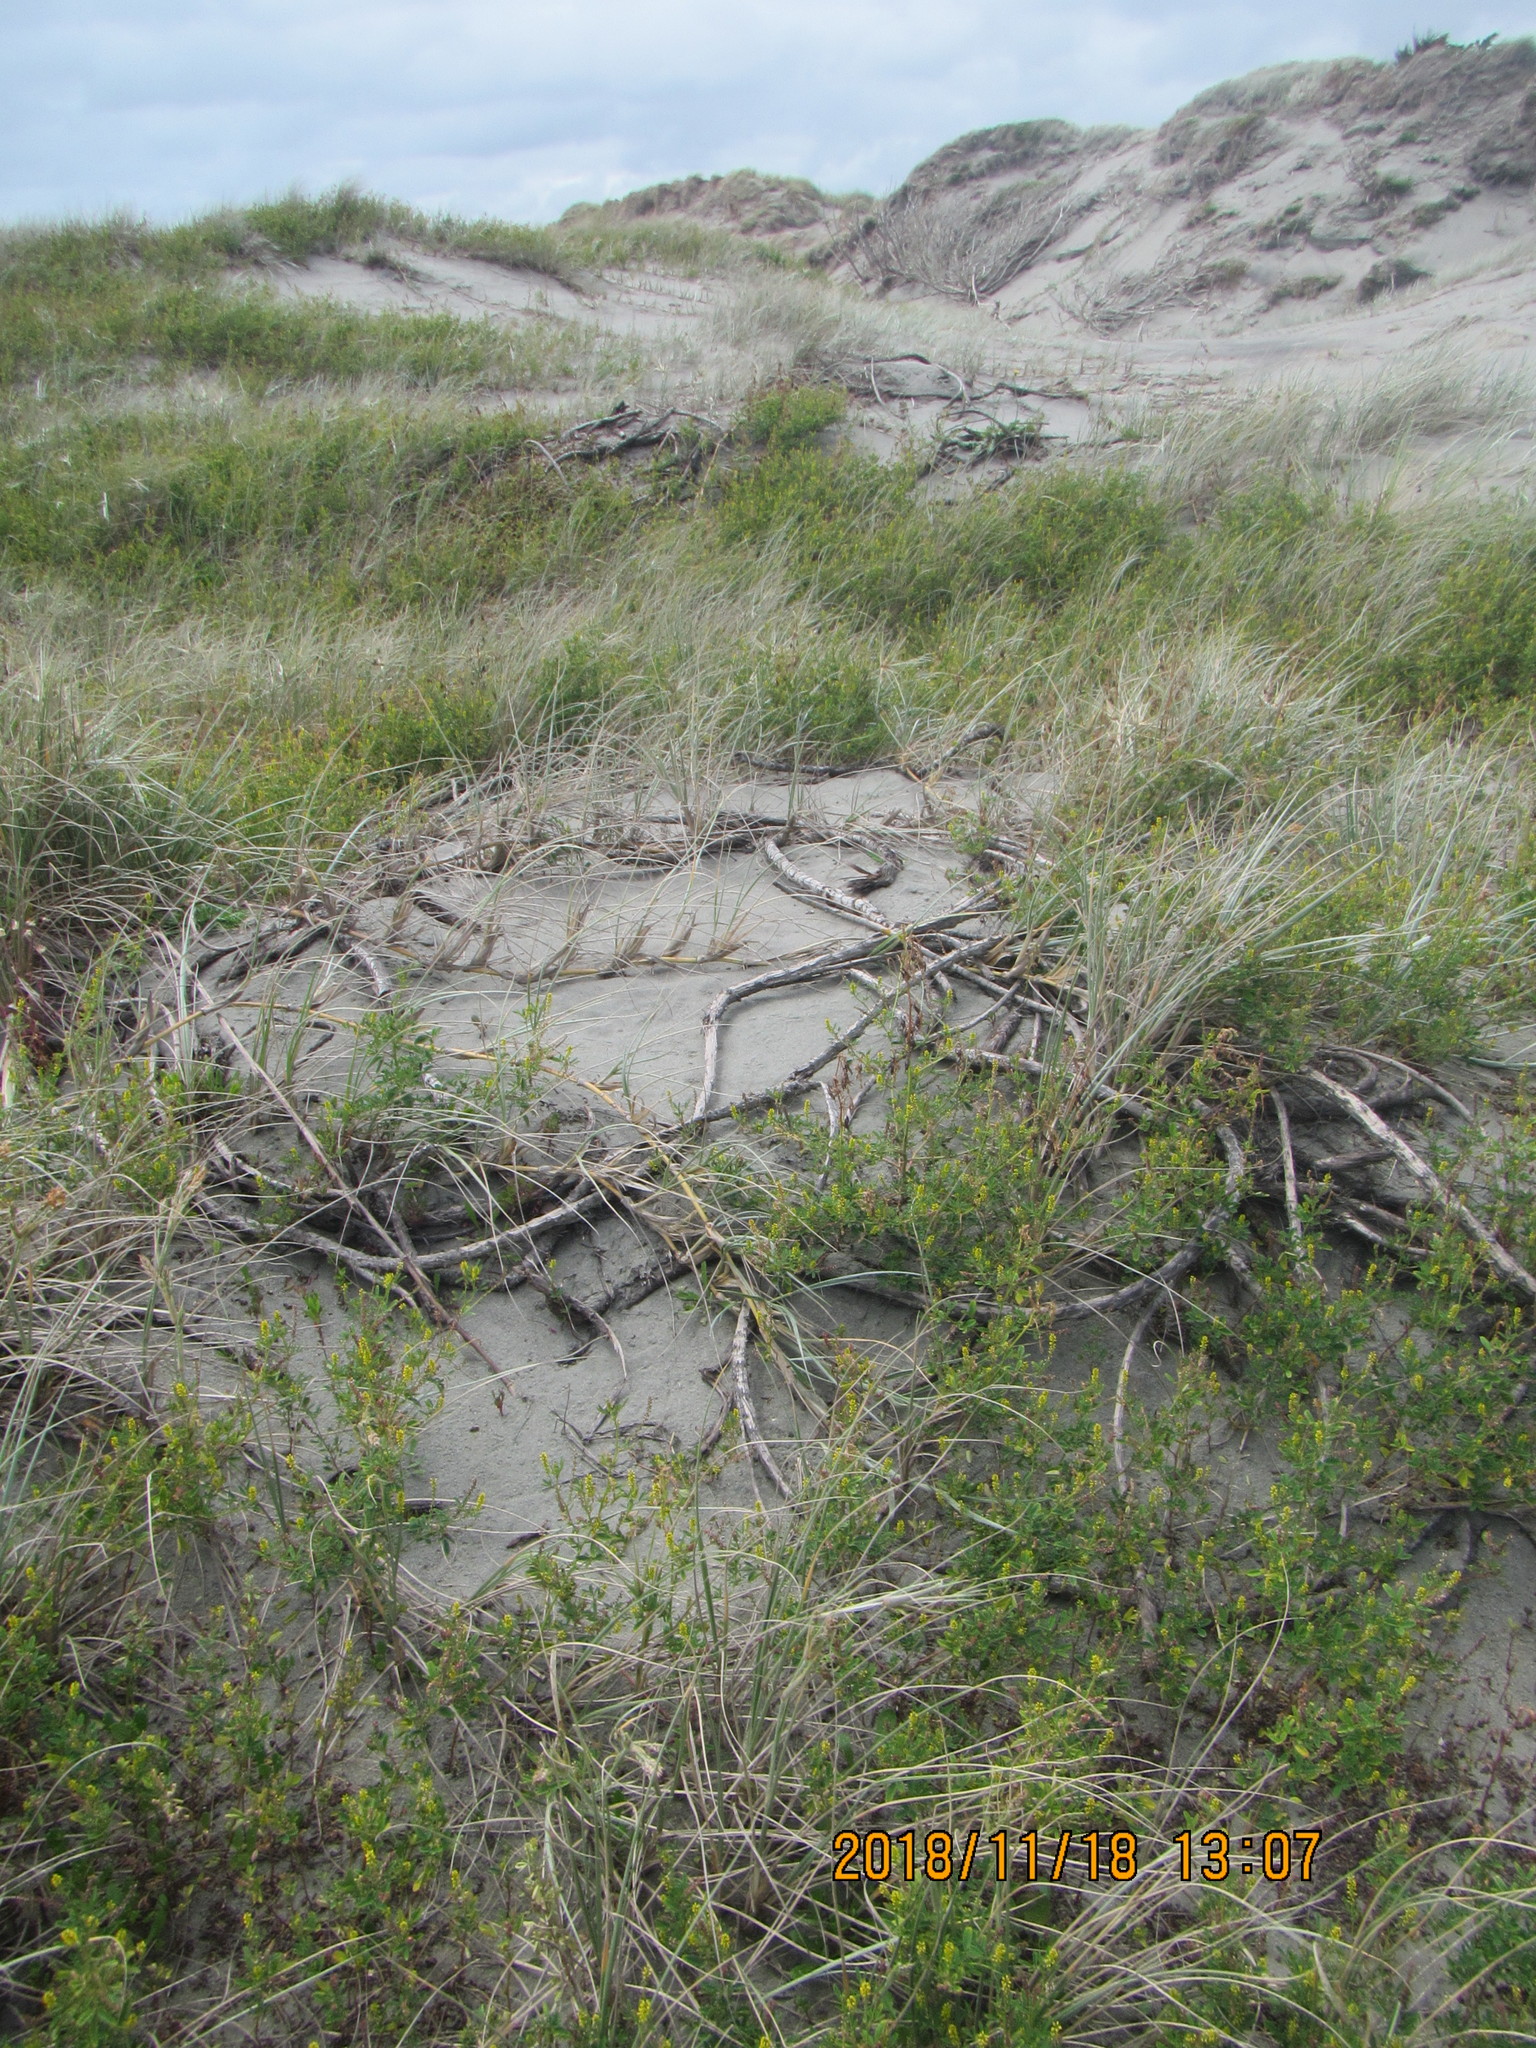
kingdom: Plantae
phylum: Tracheophyta
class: Liliopsida
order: Poales
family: Cyperaceae
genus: Ficinia
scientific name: Ficinia spiralis
